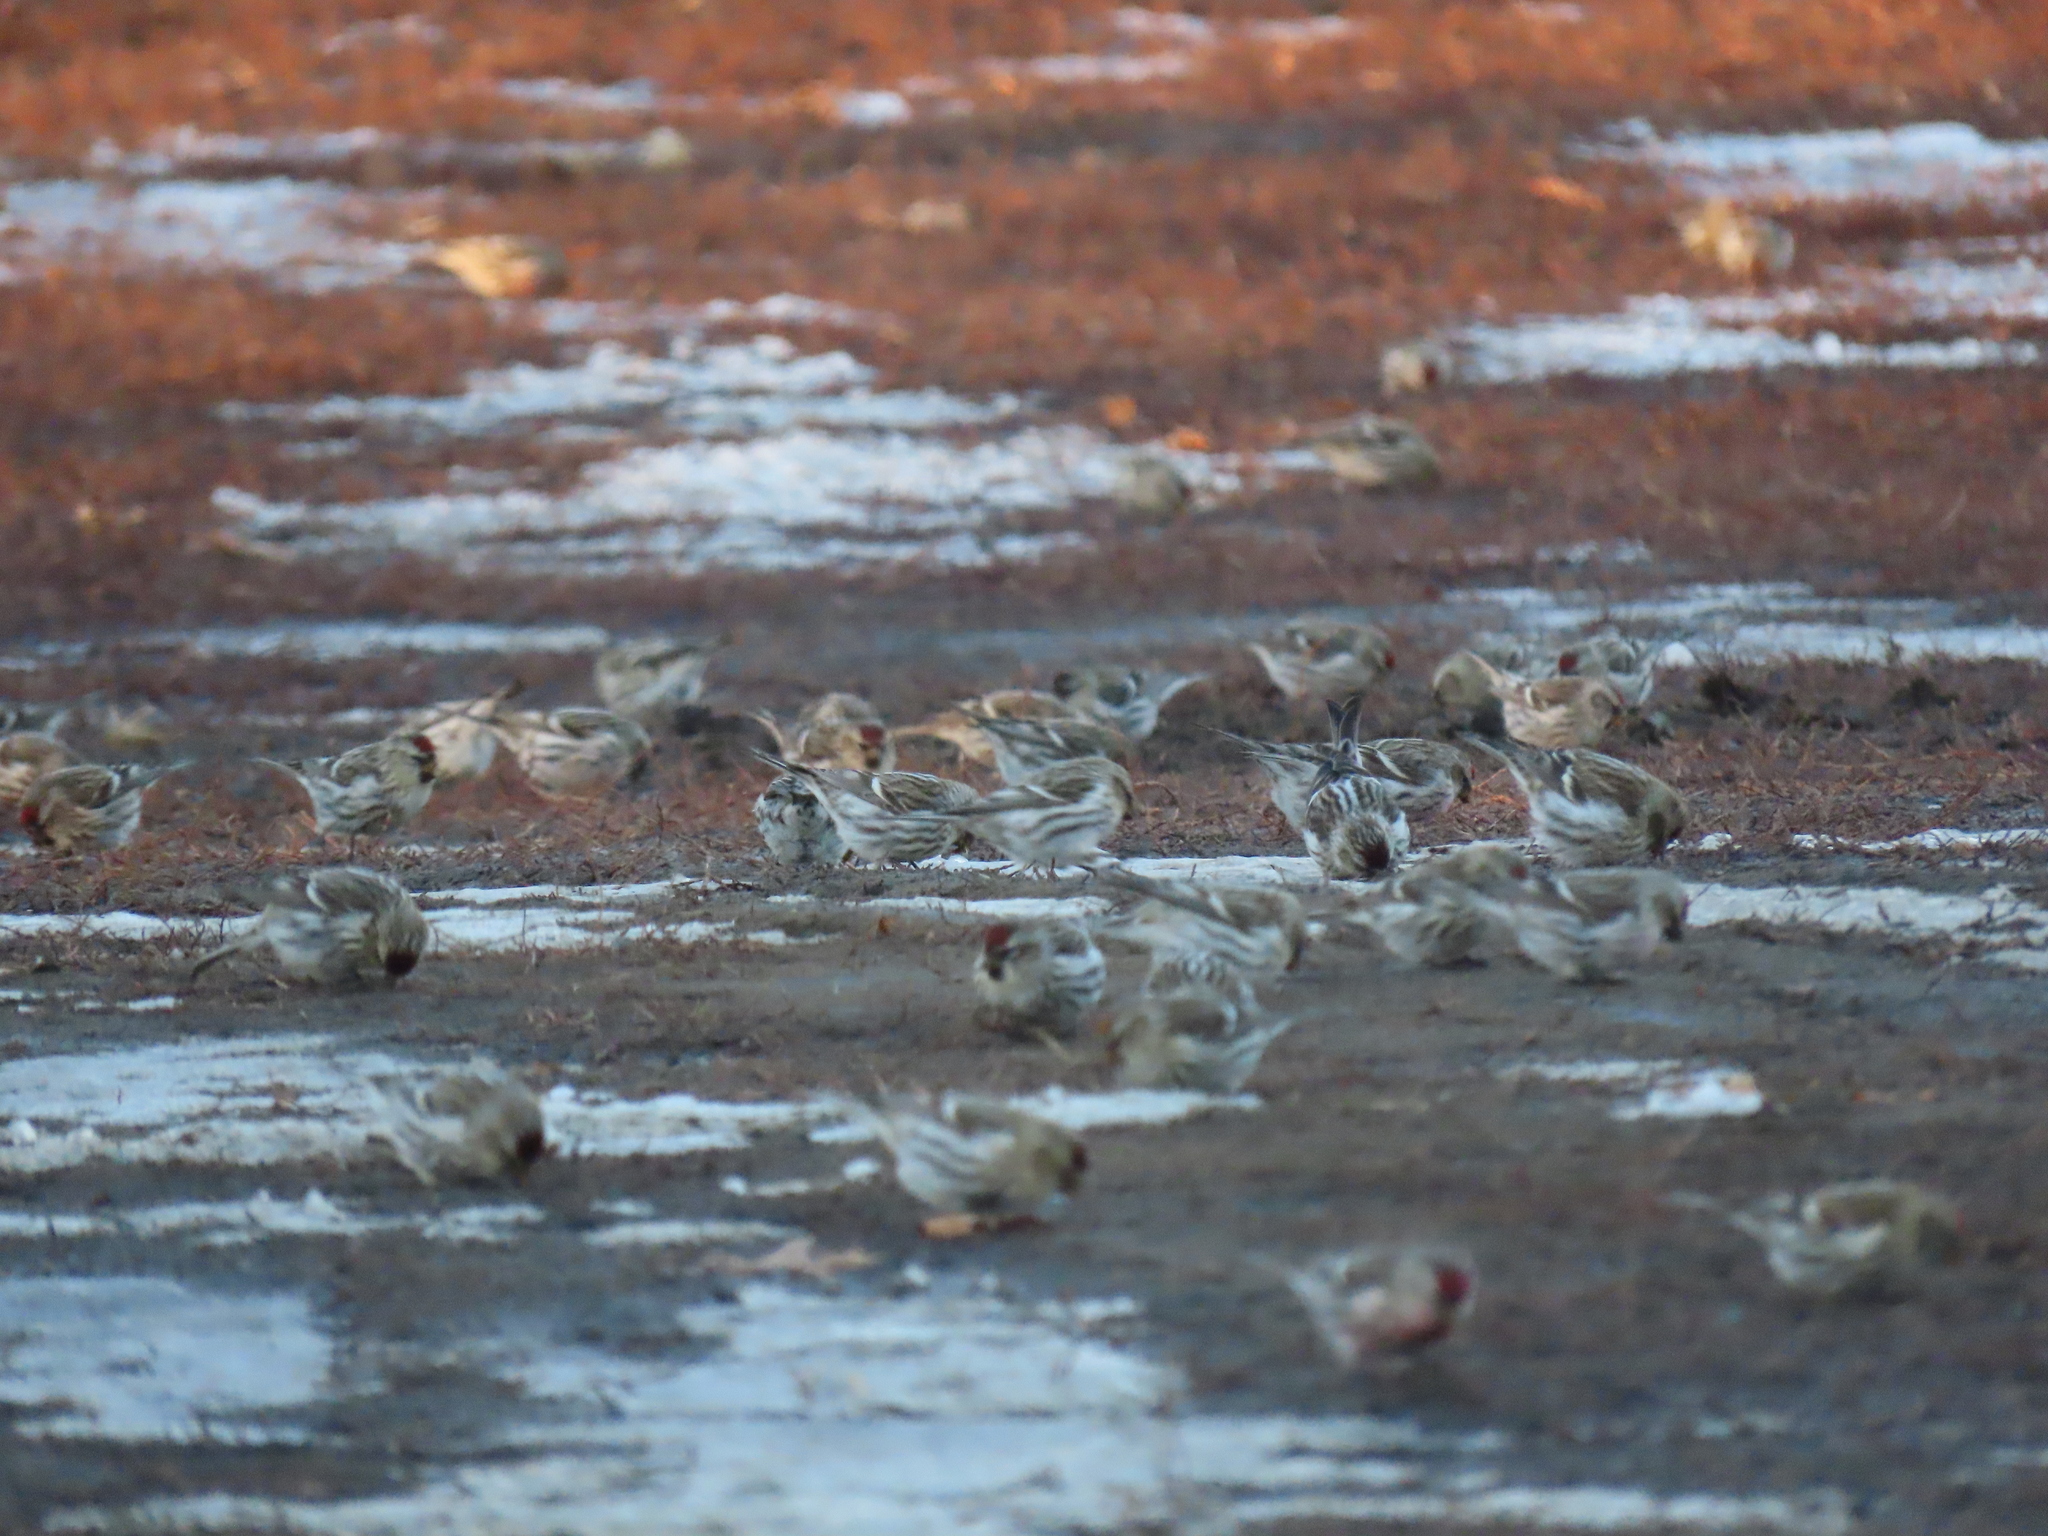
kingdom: Animalia
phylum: Chordata
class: Aves
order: Passeriformes
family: Fringillidae
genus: Acanthis
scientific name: Acanthis flammea
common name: Common redpoll
